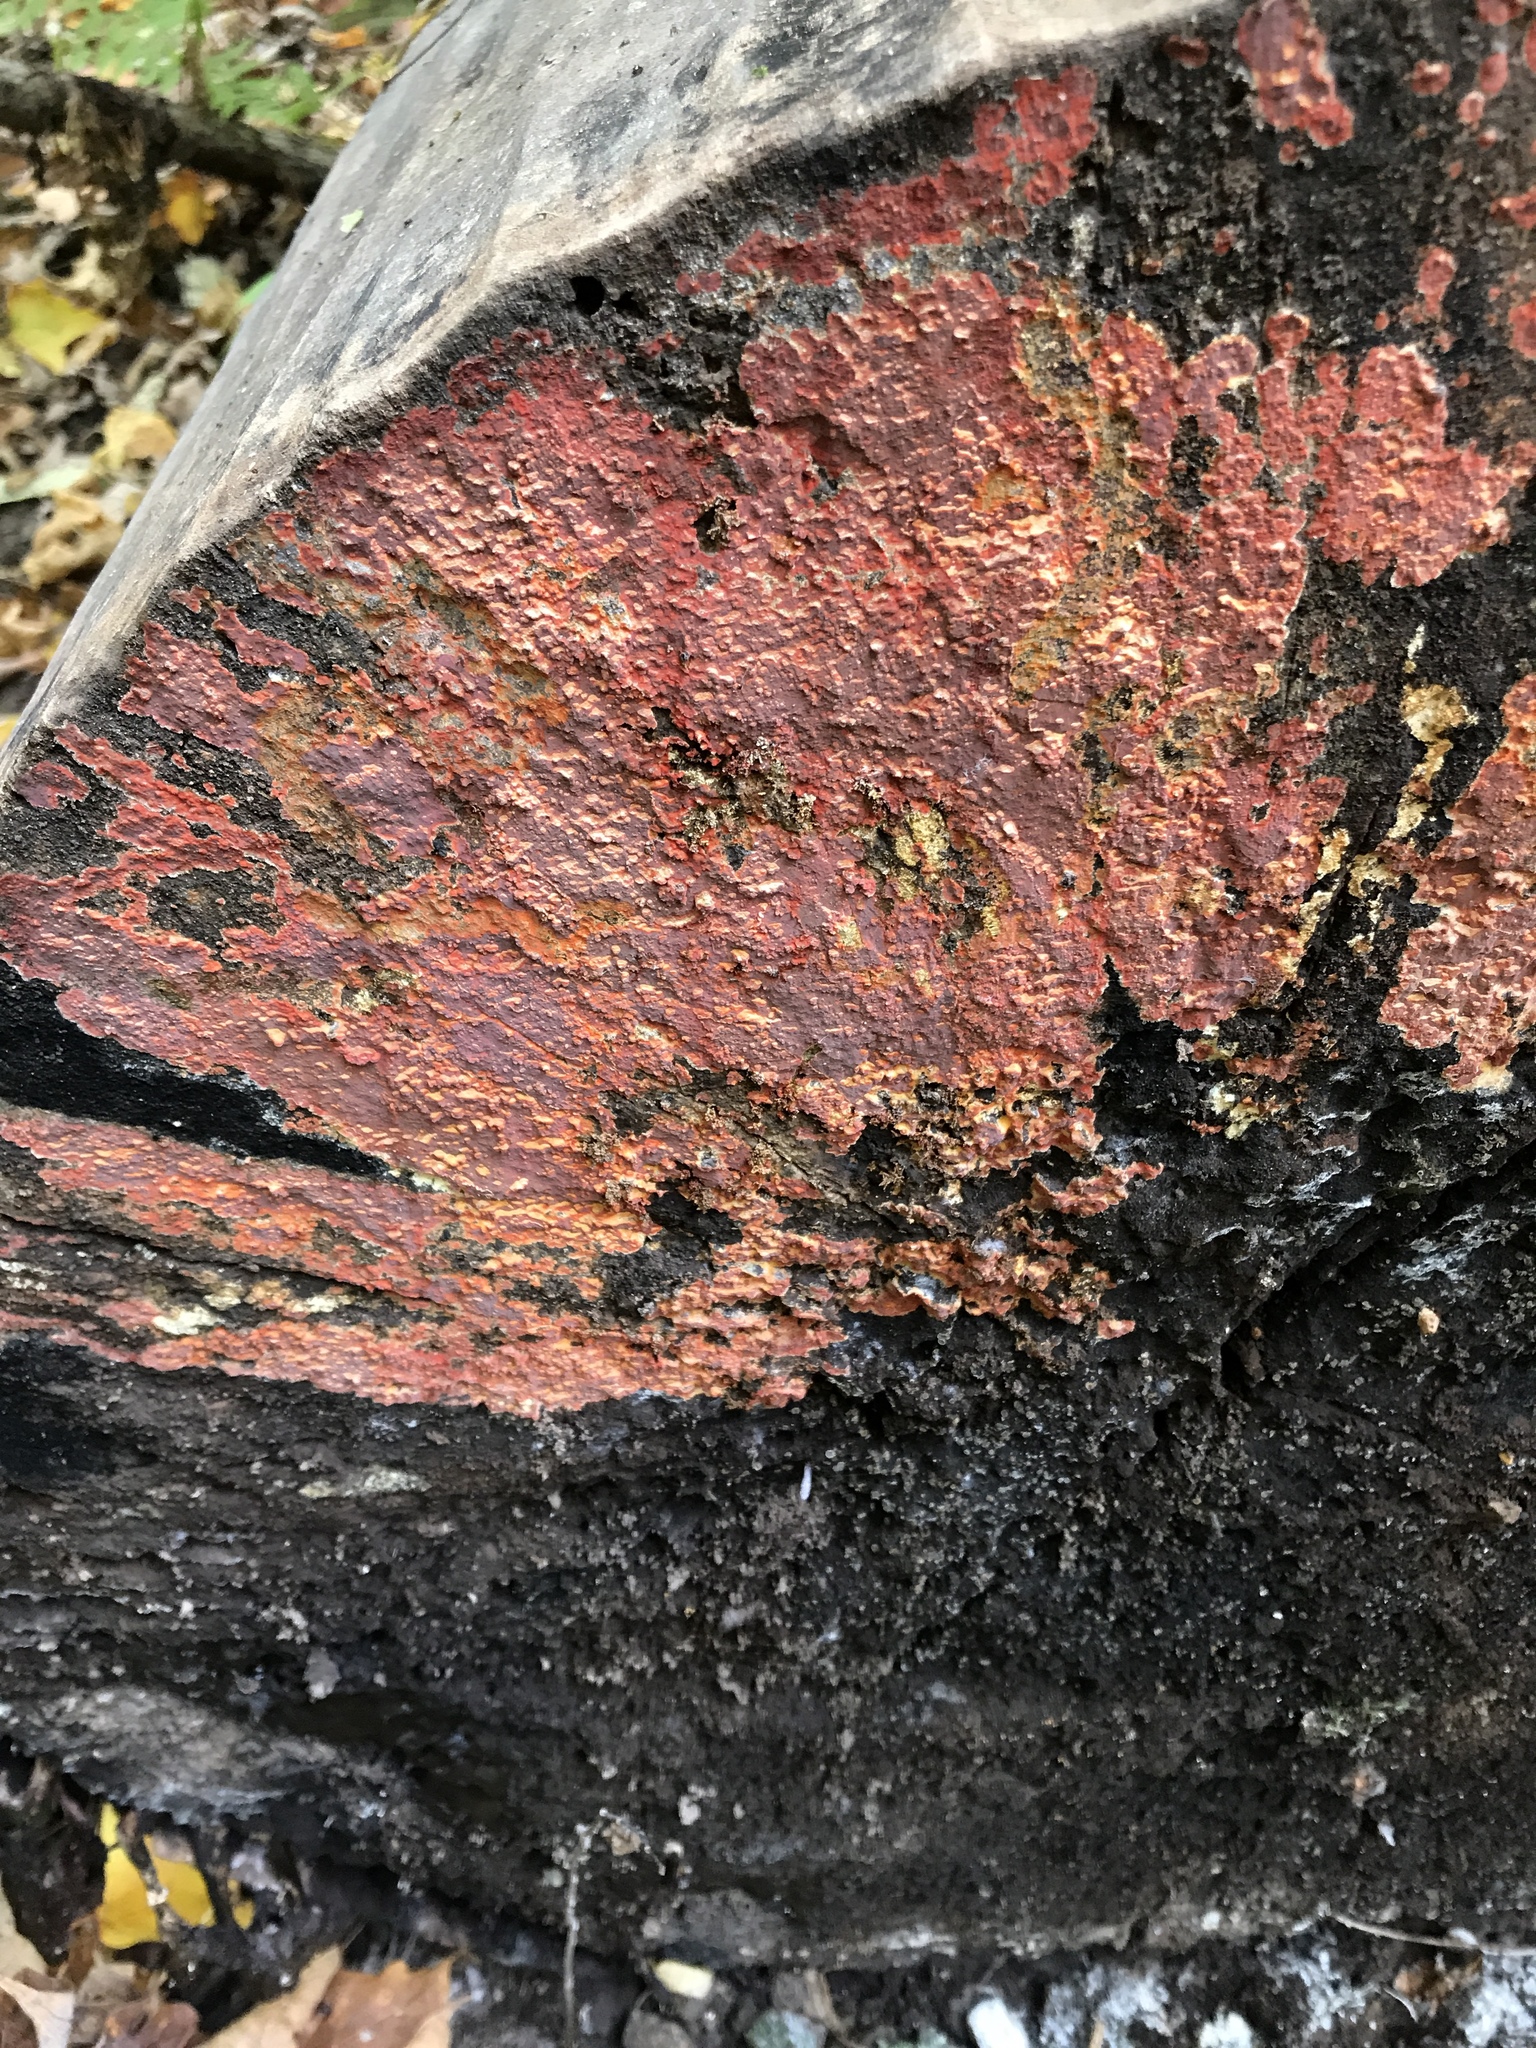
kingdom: Fungi
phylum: Basidiomycota
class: Agaricomycetes
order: Polyporales
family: Meruliaceae
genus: Phlebia
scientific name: Phlebia coccineofulva
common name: Scarlet waxcrust
